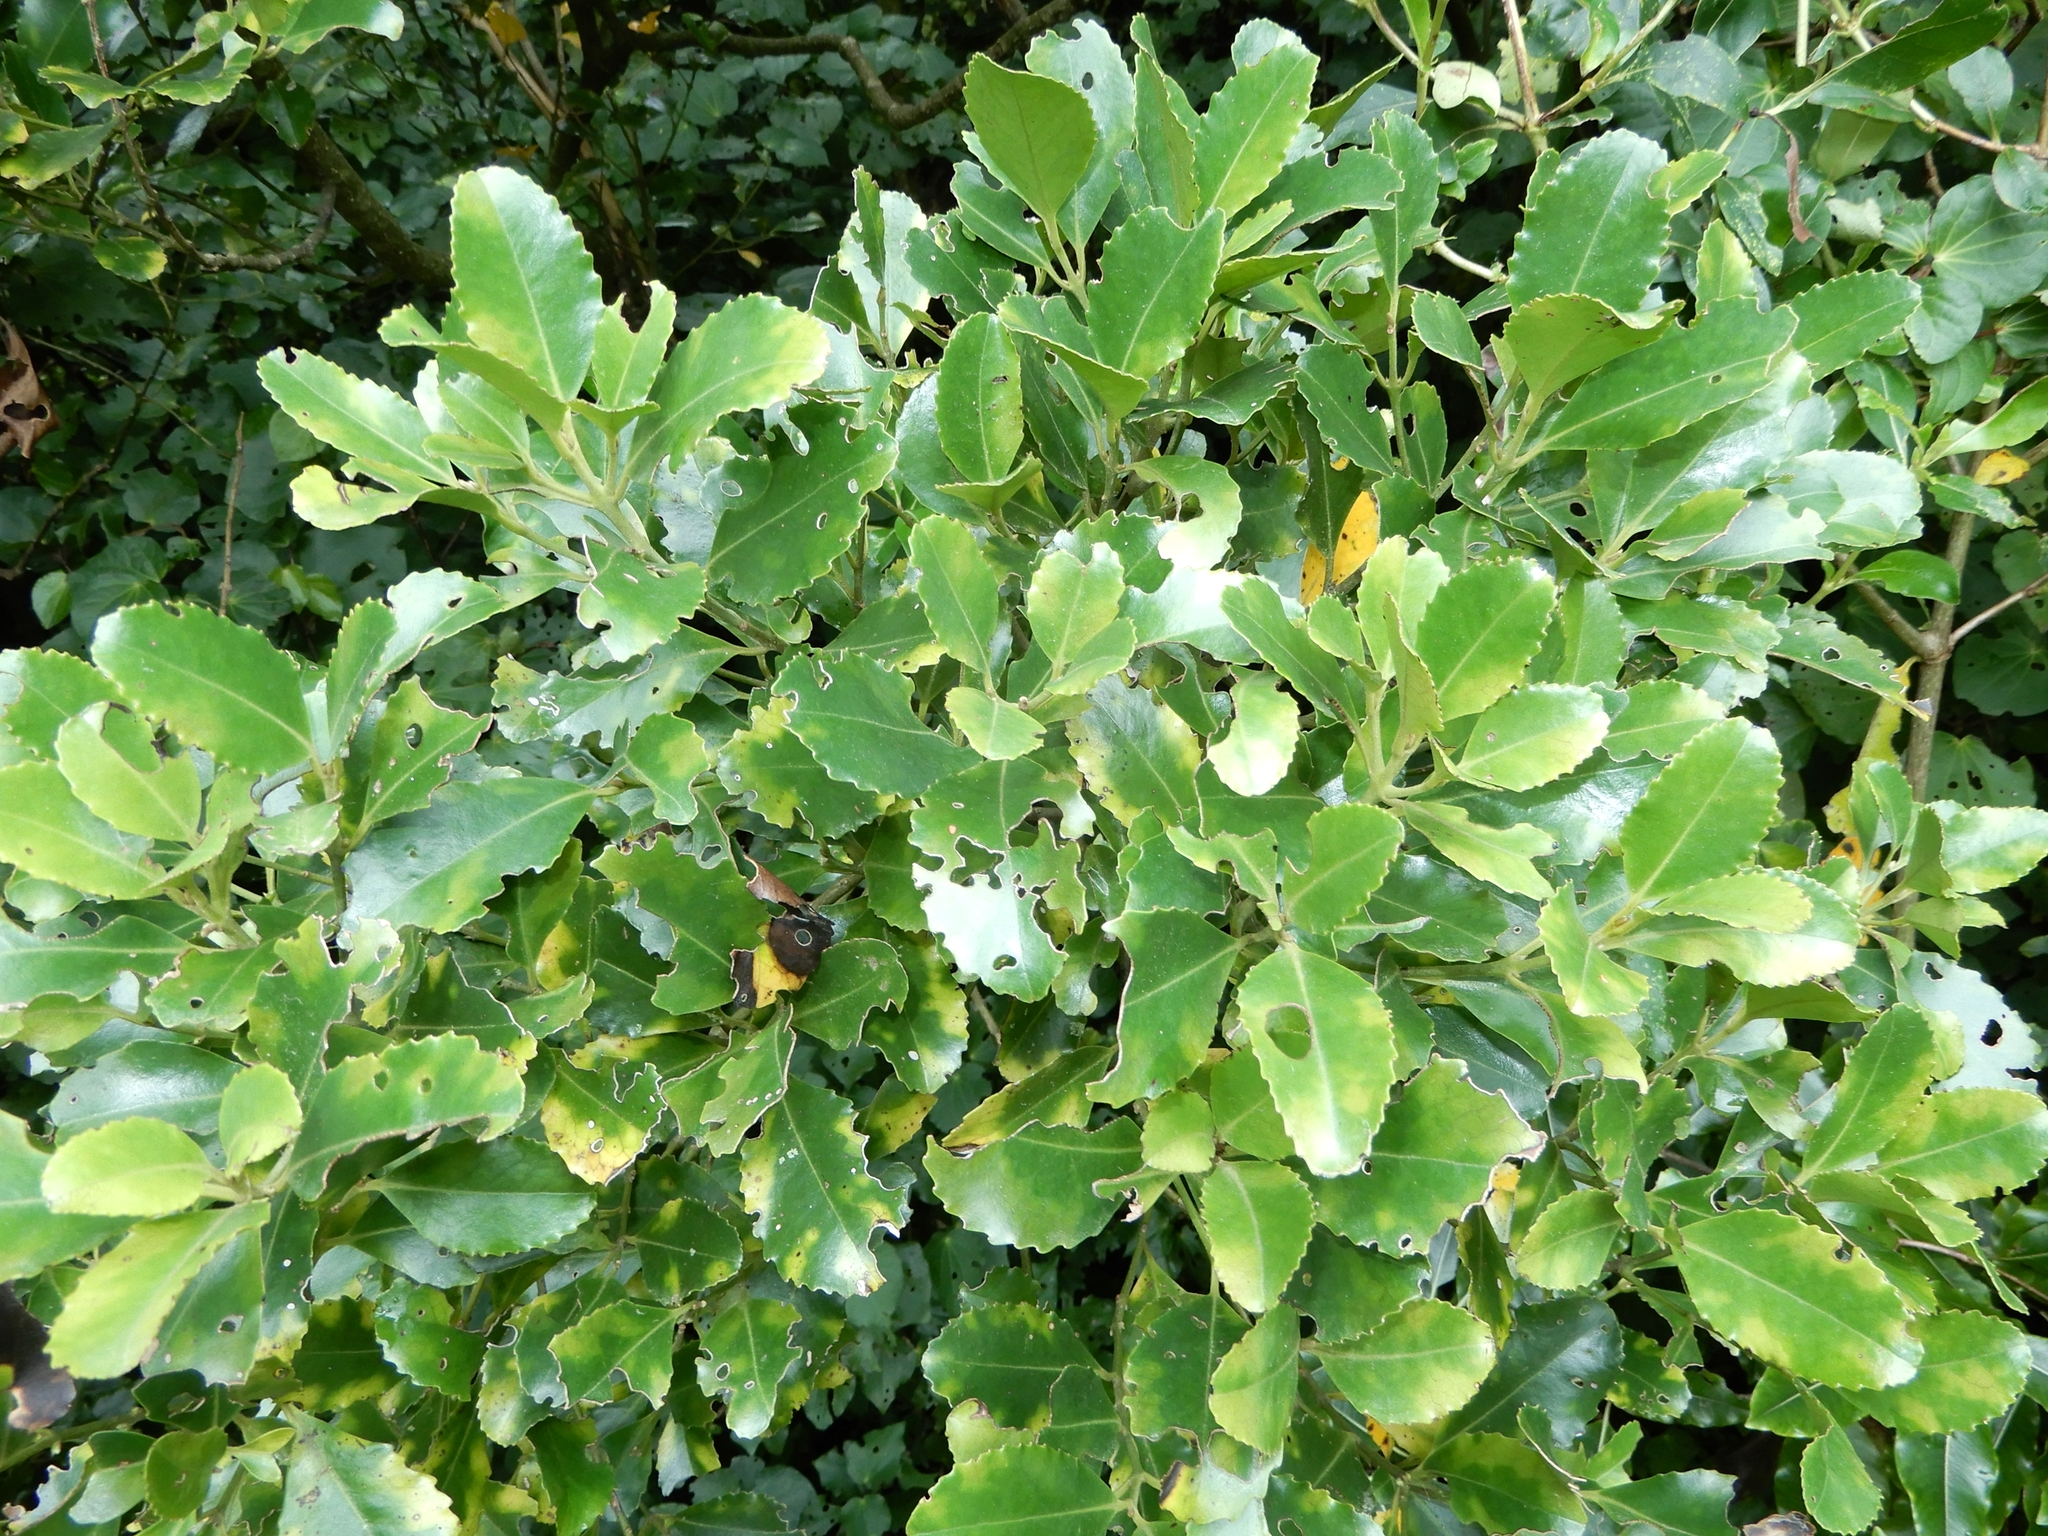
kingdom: Plantae
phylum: Tracheophyta
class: Magnoliopsida
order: Laurales
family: Atherospermataceae
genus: Laurelia
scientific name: Laurelia novae-zelandiae
